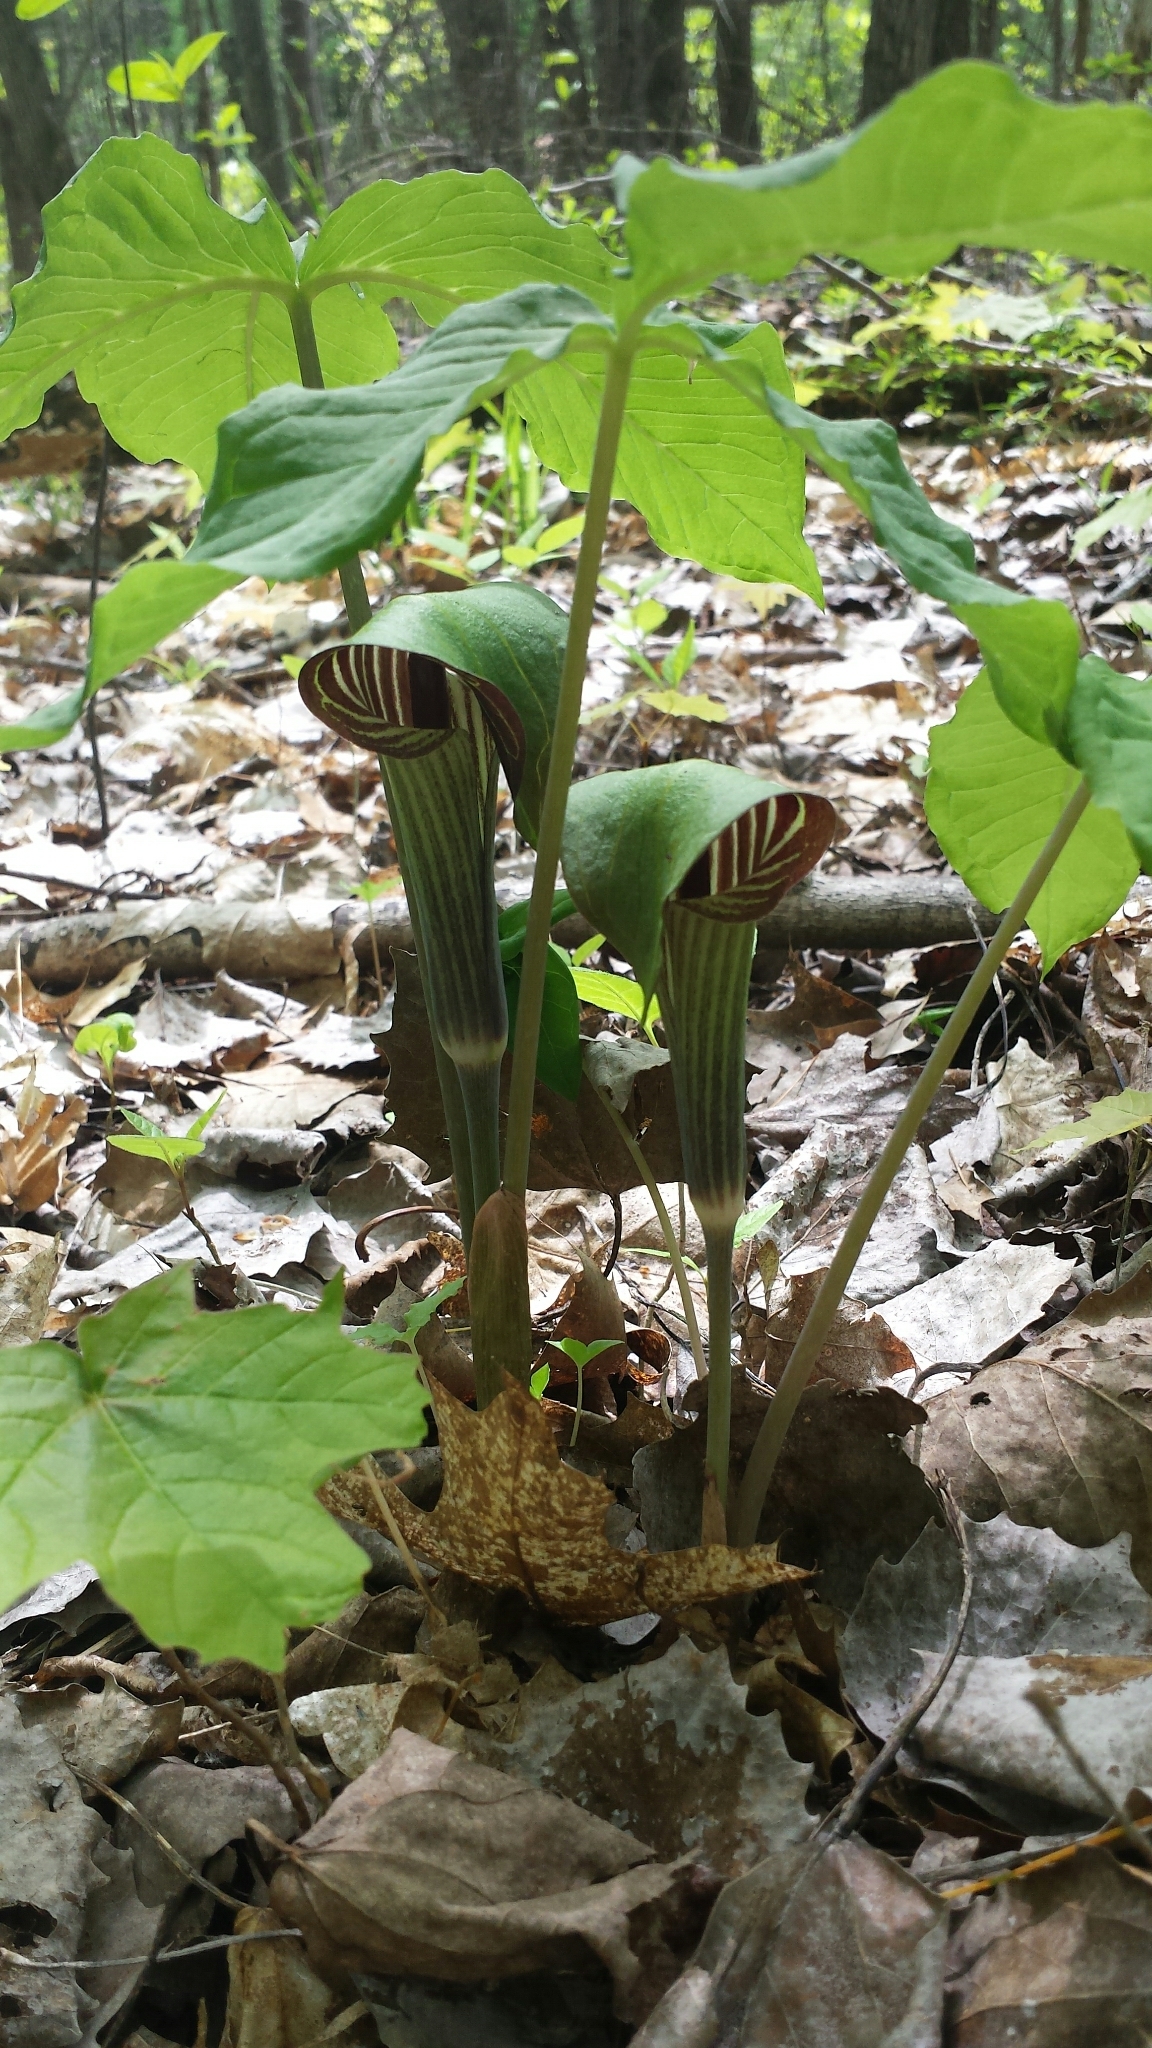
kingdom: Plantae
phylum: Tracheophyta
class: Liliopsida
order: Alismatales
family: Araceae
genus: Arisaema
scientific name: Arisaema triphyllum
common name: Jack-in-the-pulpit
